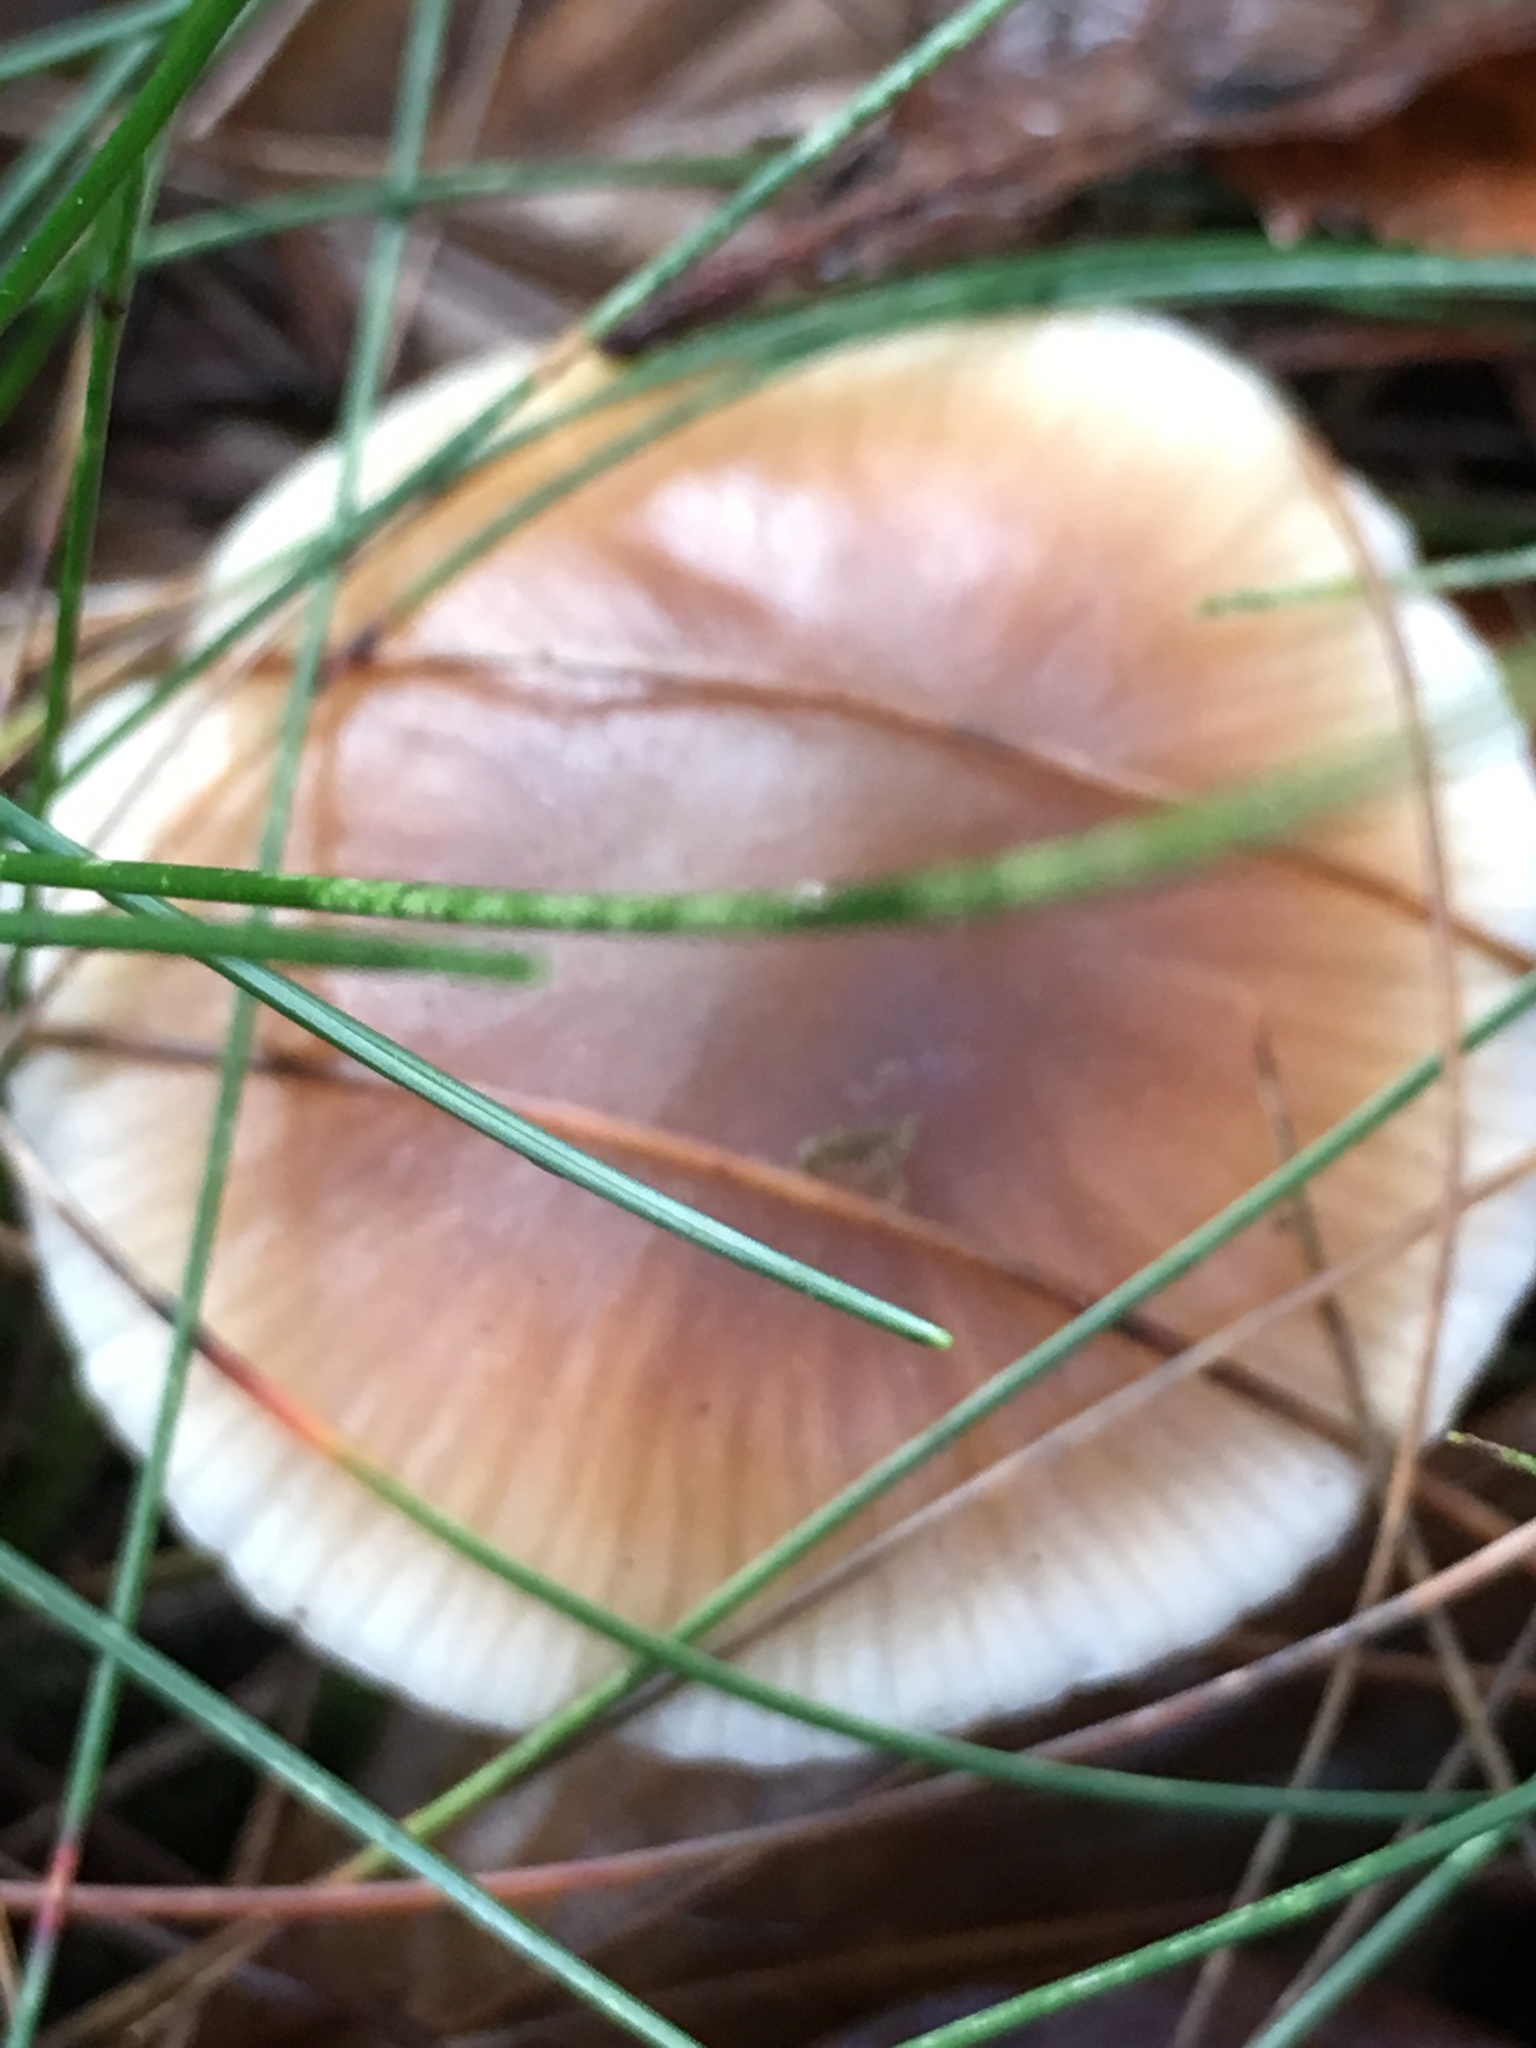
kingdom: Fungi
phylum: Basidiomycota
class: Agaricomycetes
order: Agaricales
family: Omphalotaceae
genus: Rhodocollybia
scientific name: Rhodocollybia butyracea
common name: Butter cap
